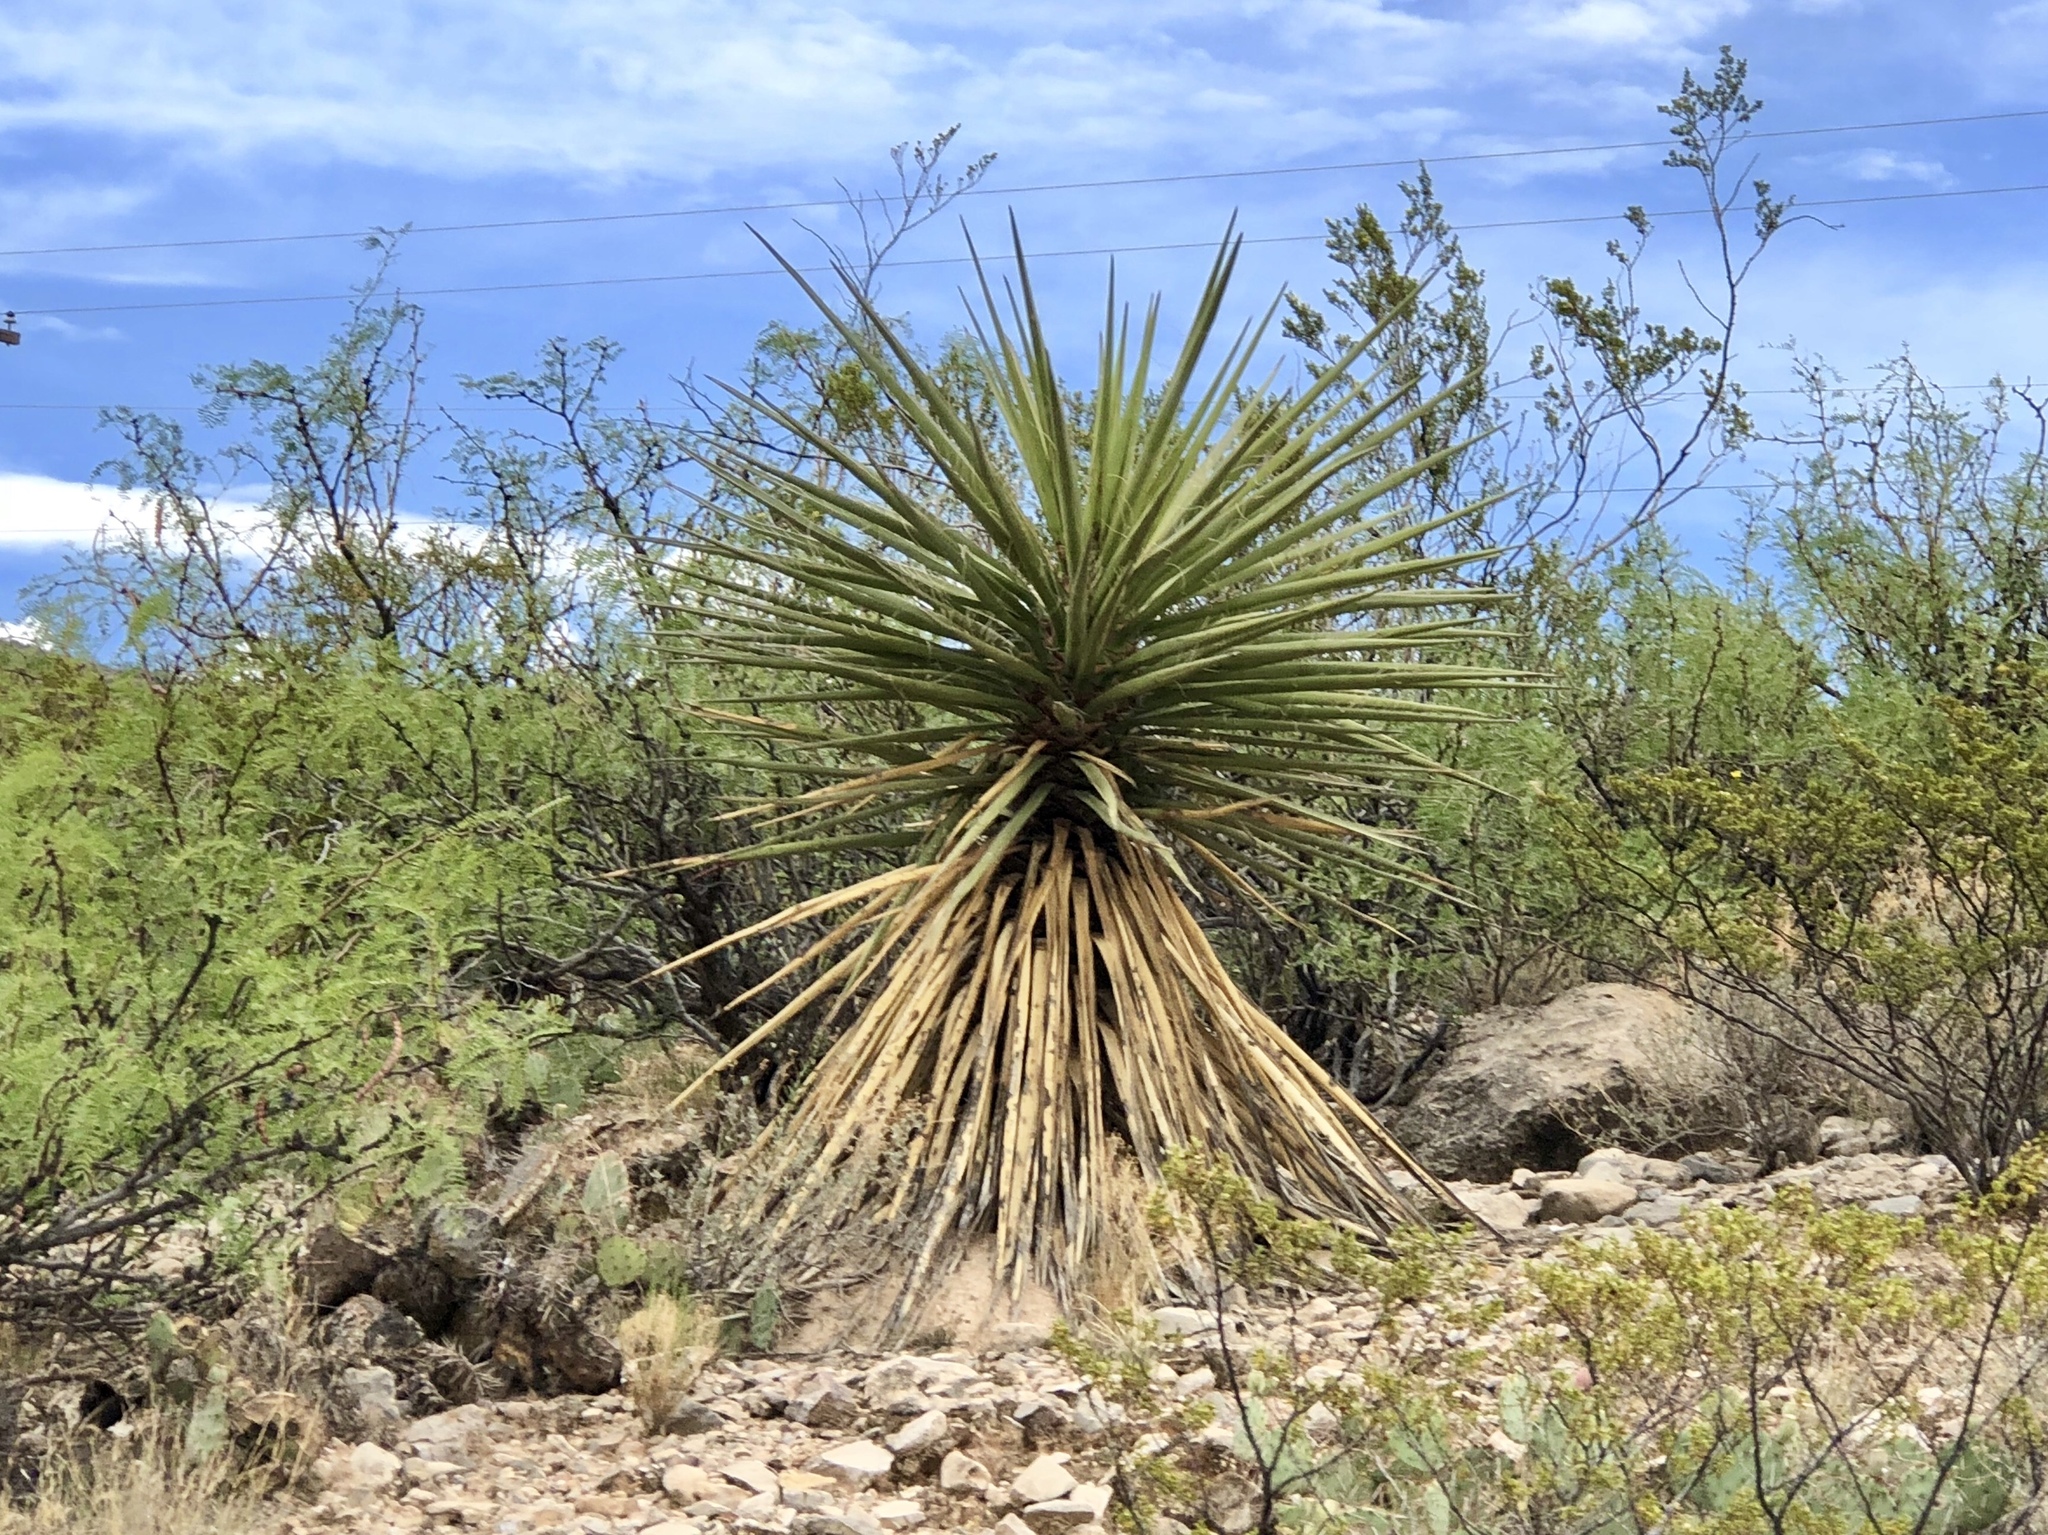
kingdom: Plantae
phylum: Tracheophyta
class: Liliopsida
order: Asparagales
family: Asparagaceae
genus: Yucca
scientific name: Yucca treculiana
